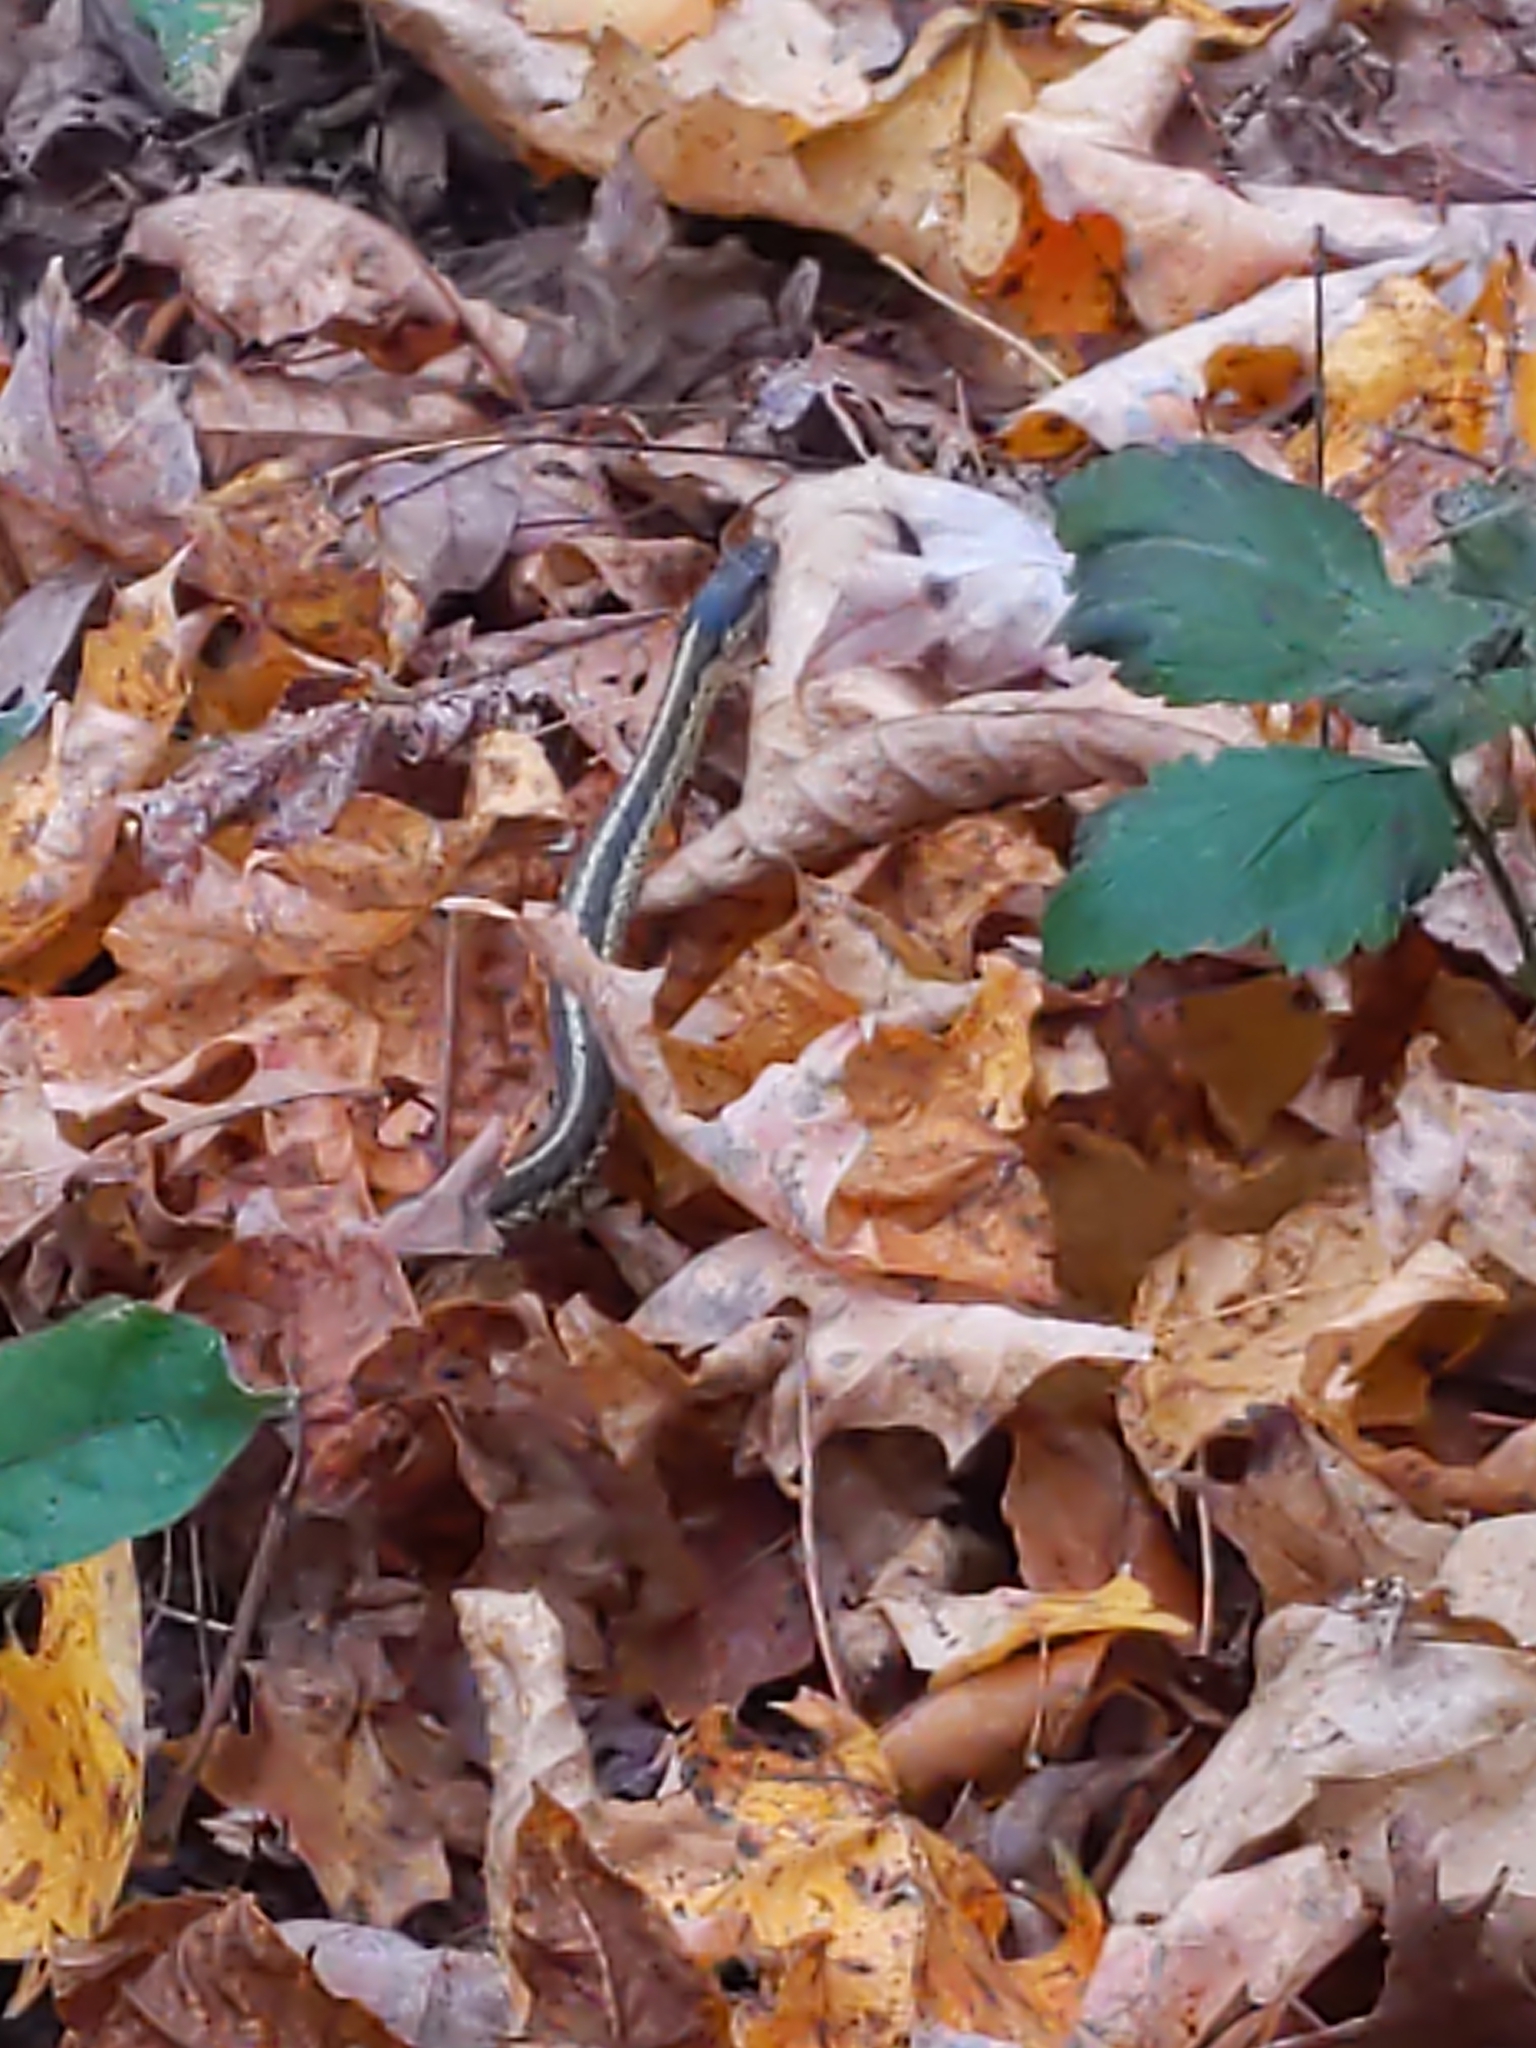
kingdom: Animalia
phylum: Chordata
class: Squamata
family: Colubridae
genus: Thamnophis
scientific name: Thamnophis sirtalis
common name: Common garter snake
